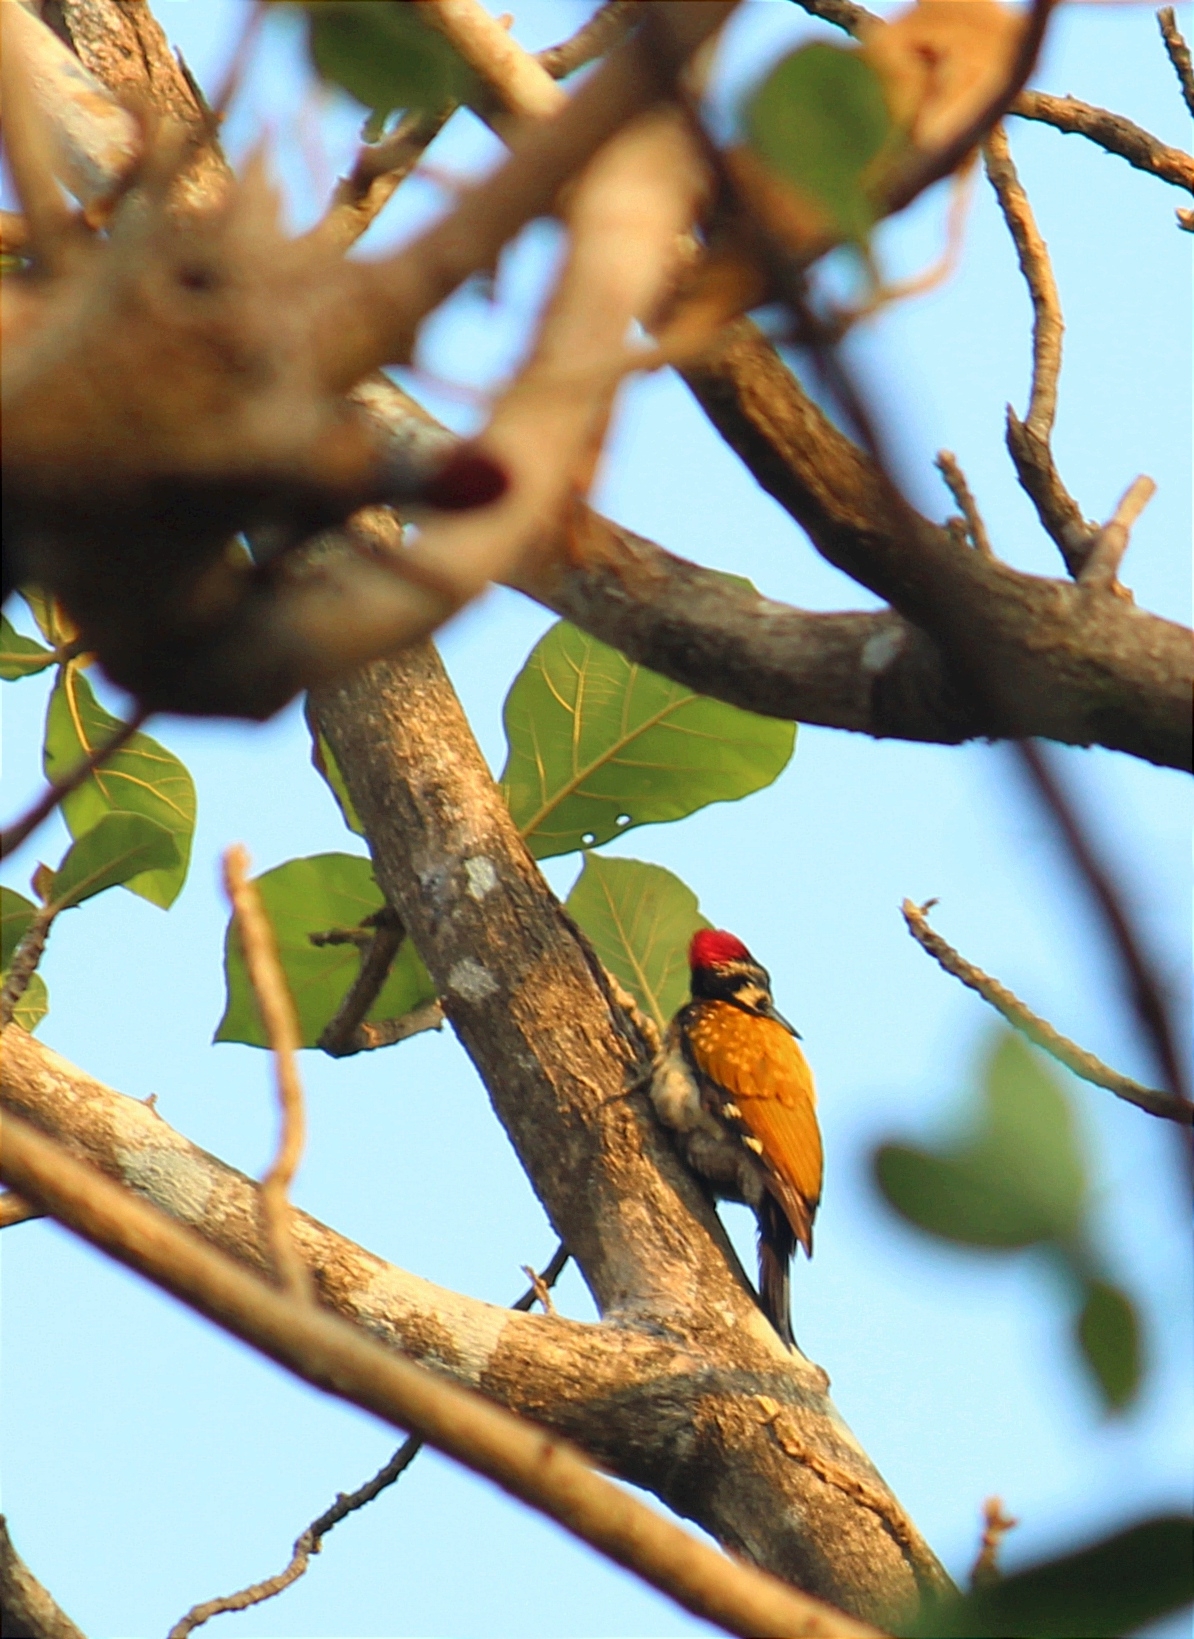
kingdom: Animalia
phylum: Chordata
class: Aves
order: Piciformes
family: Picidae
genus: Dinopium
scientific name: Dinopium benghalense
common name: Black-rumped flameback
